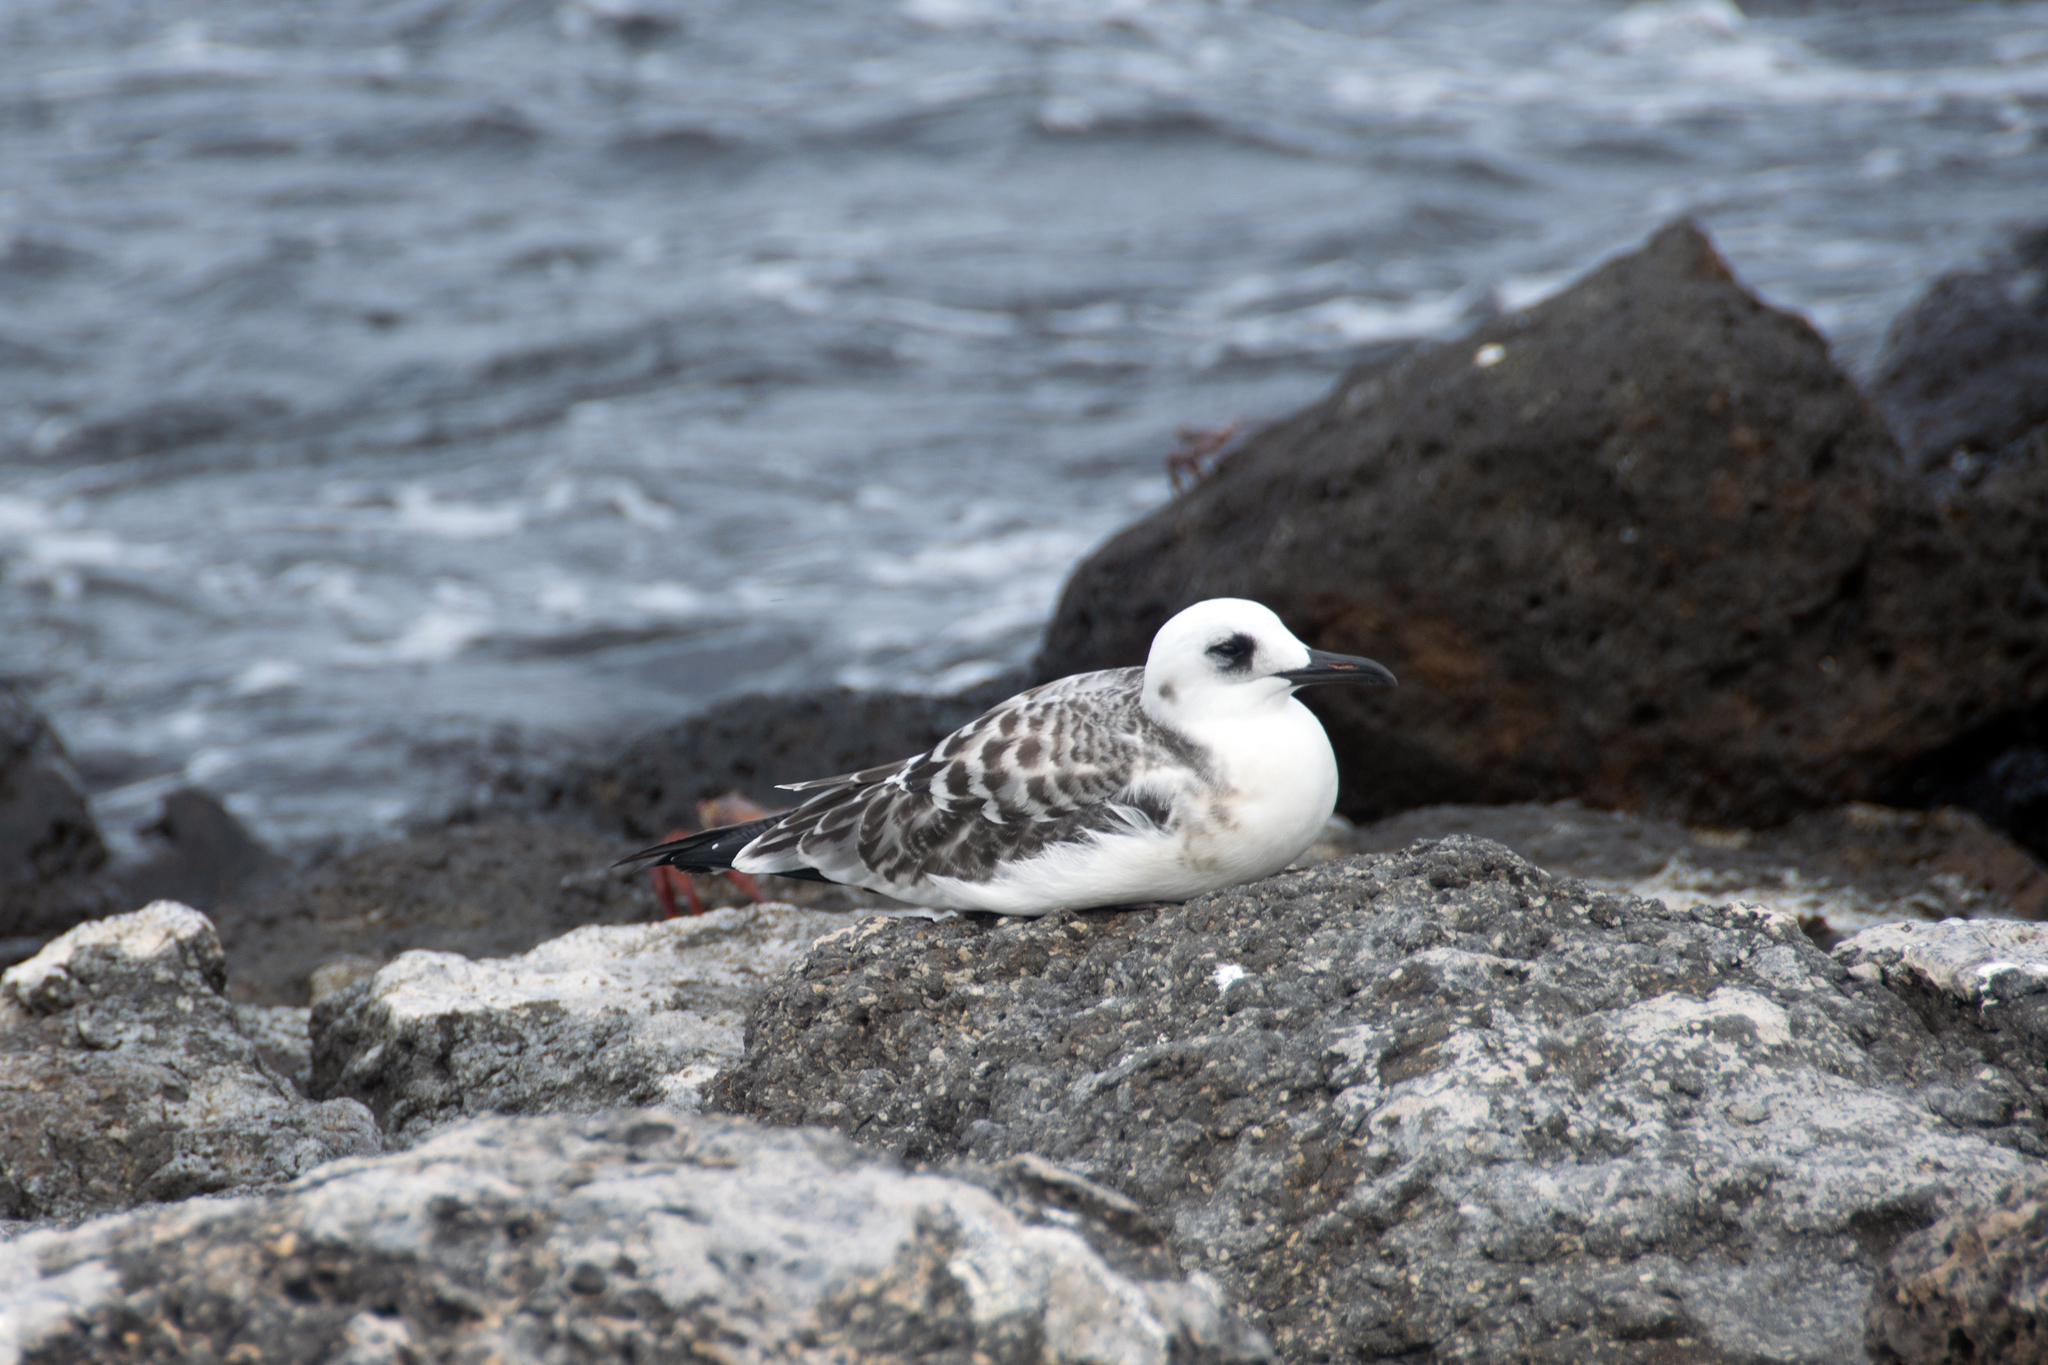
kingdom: Animalia
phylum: Chordata
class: Aves
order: Charadriiformes
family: Laridae
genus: Creagrus
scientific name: Creagrus furcatus
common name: Swallow-tailed gull
